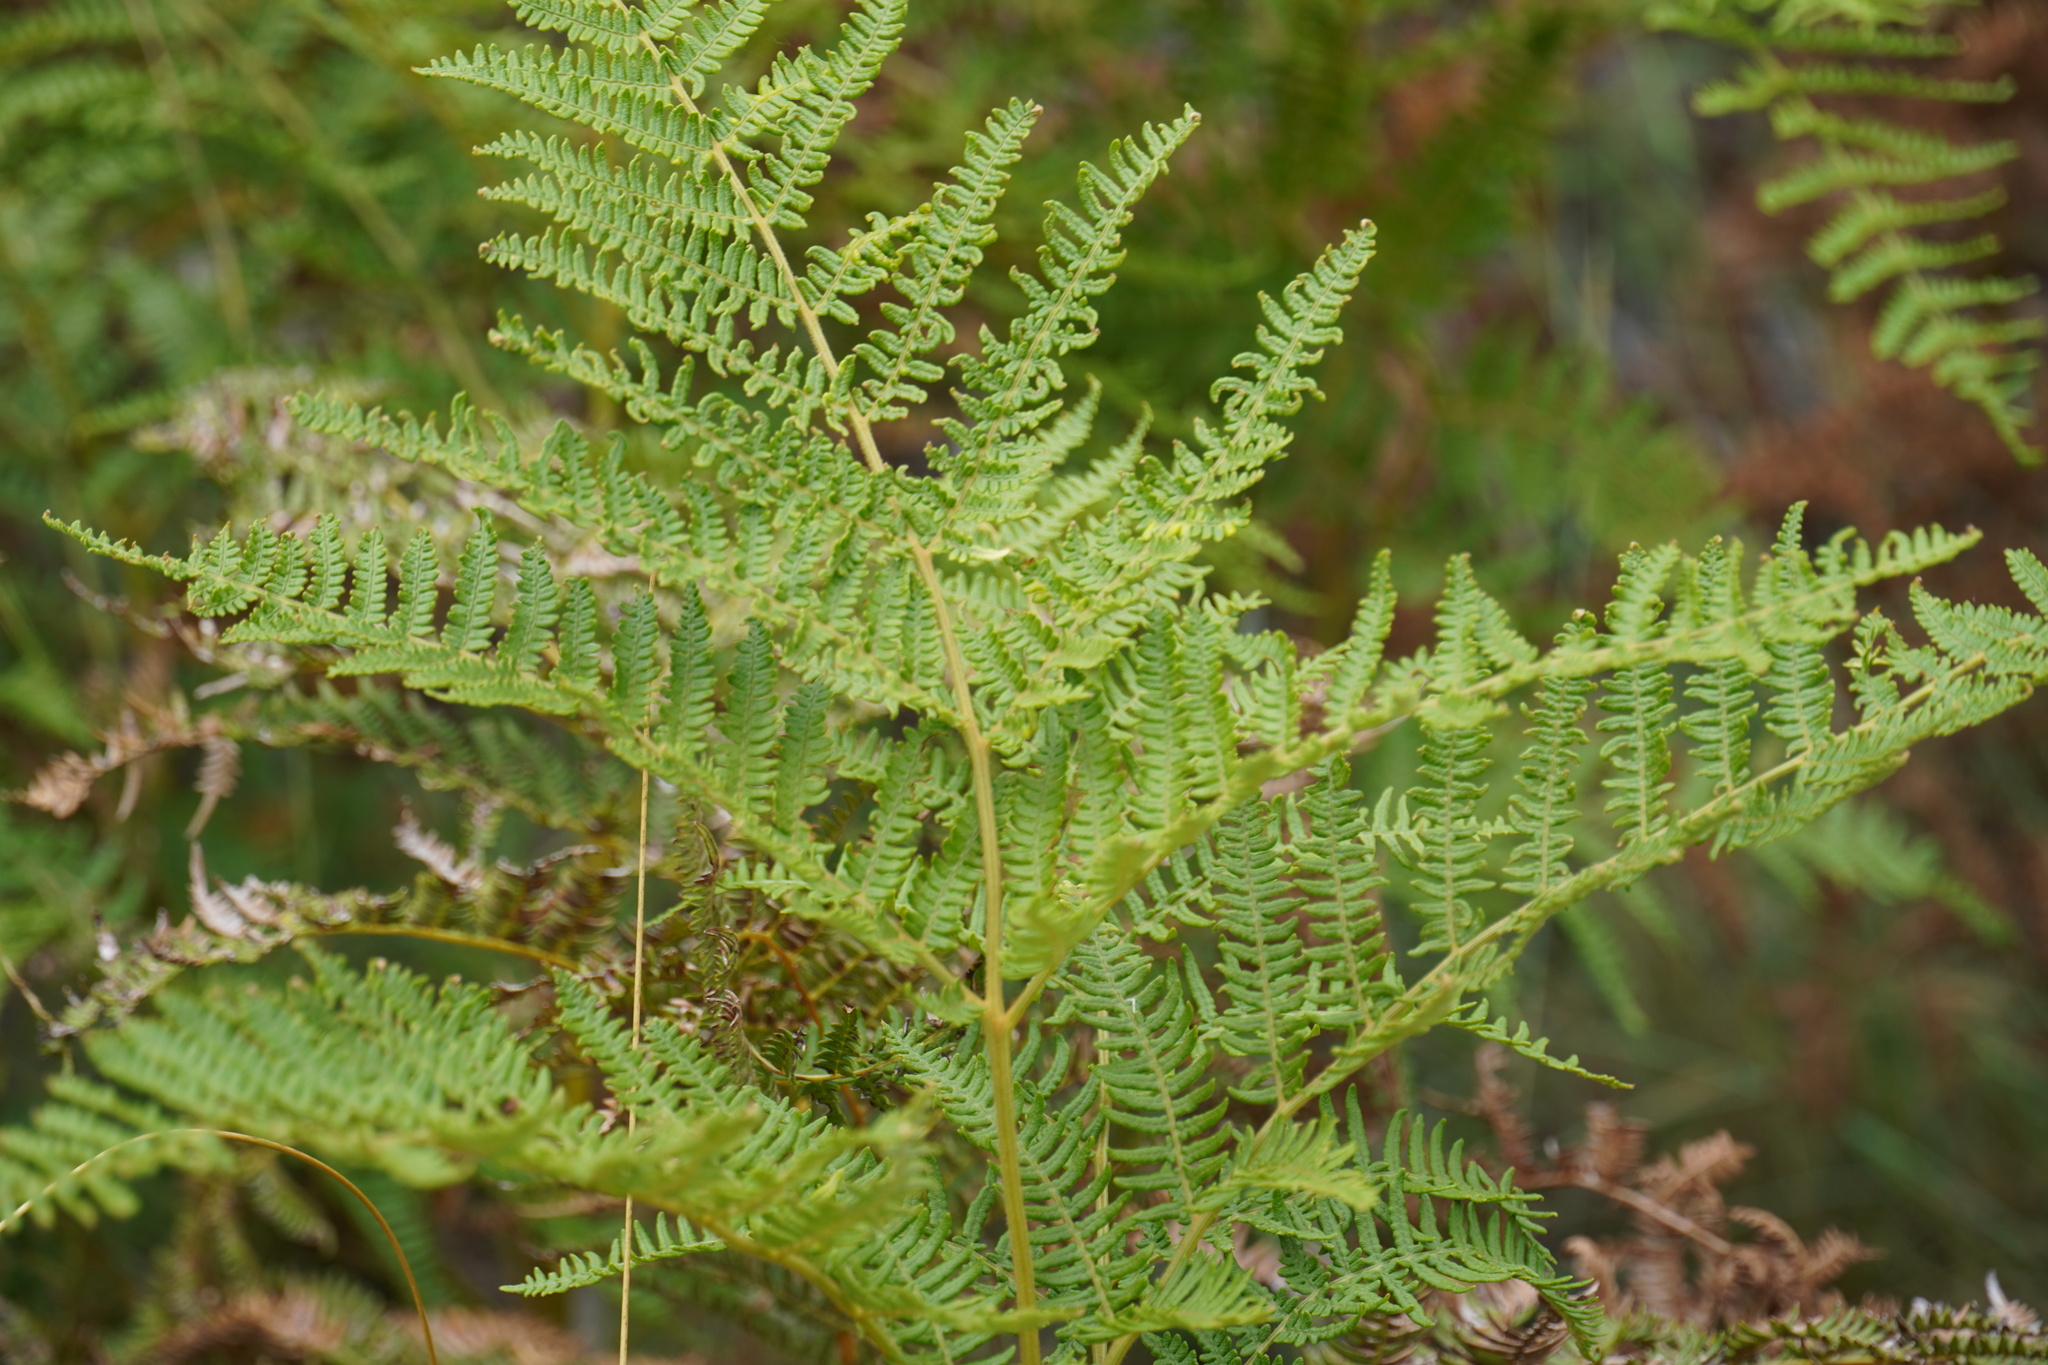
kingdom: Plantae
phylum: Tracheophyta
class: Polypodiopsida
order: Polypodiales
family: Dennstaedtiaceae
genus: Pteridium
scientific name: Pteridium aquilinum
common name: Bracken
